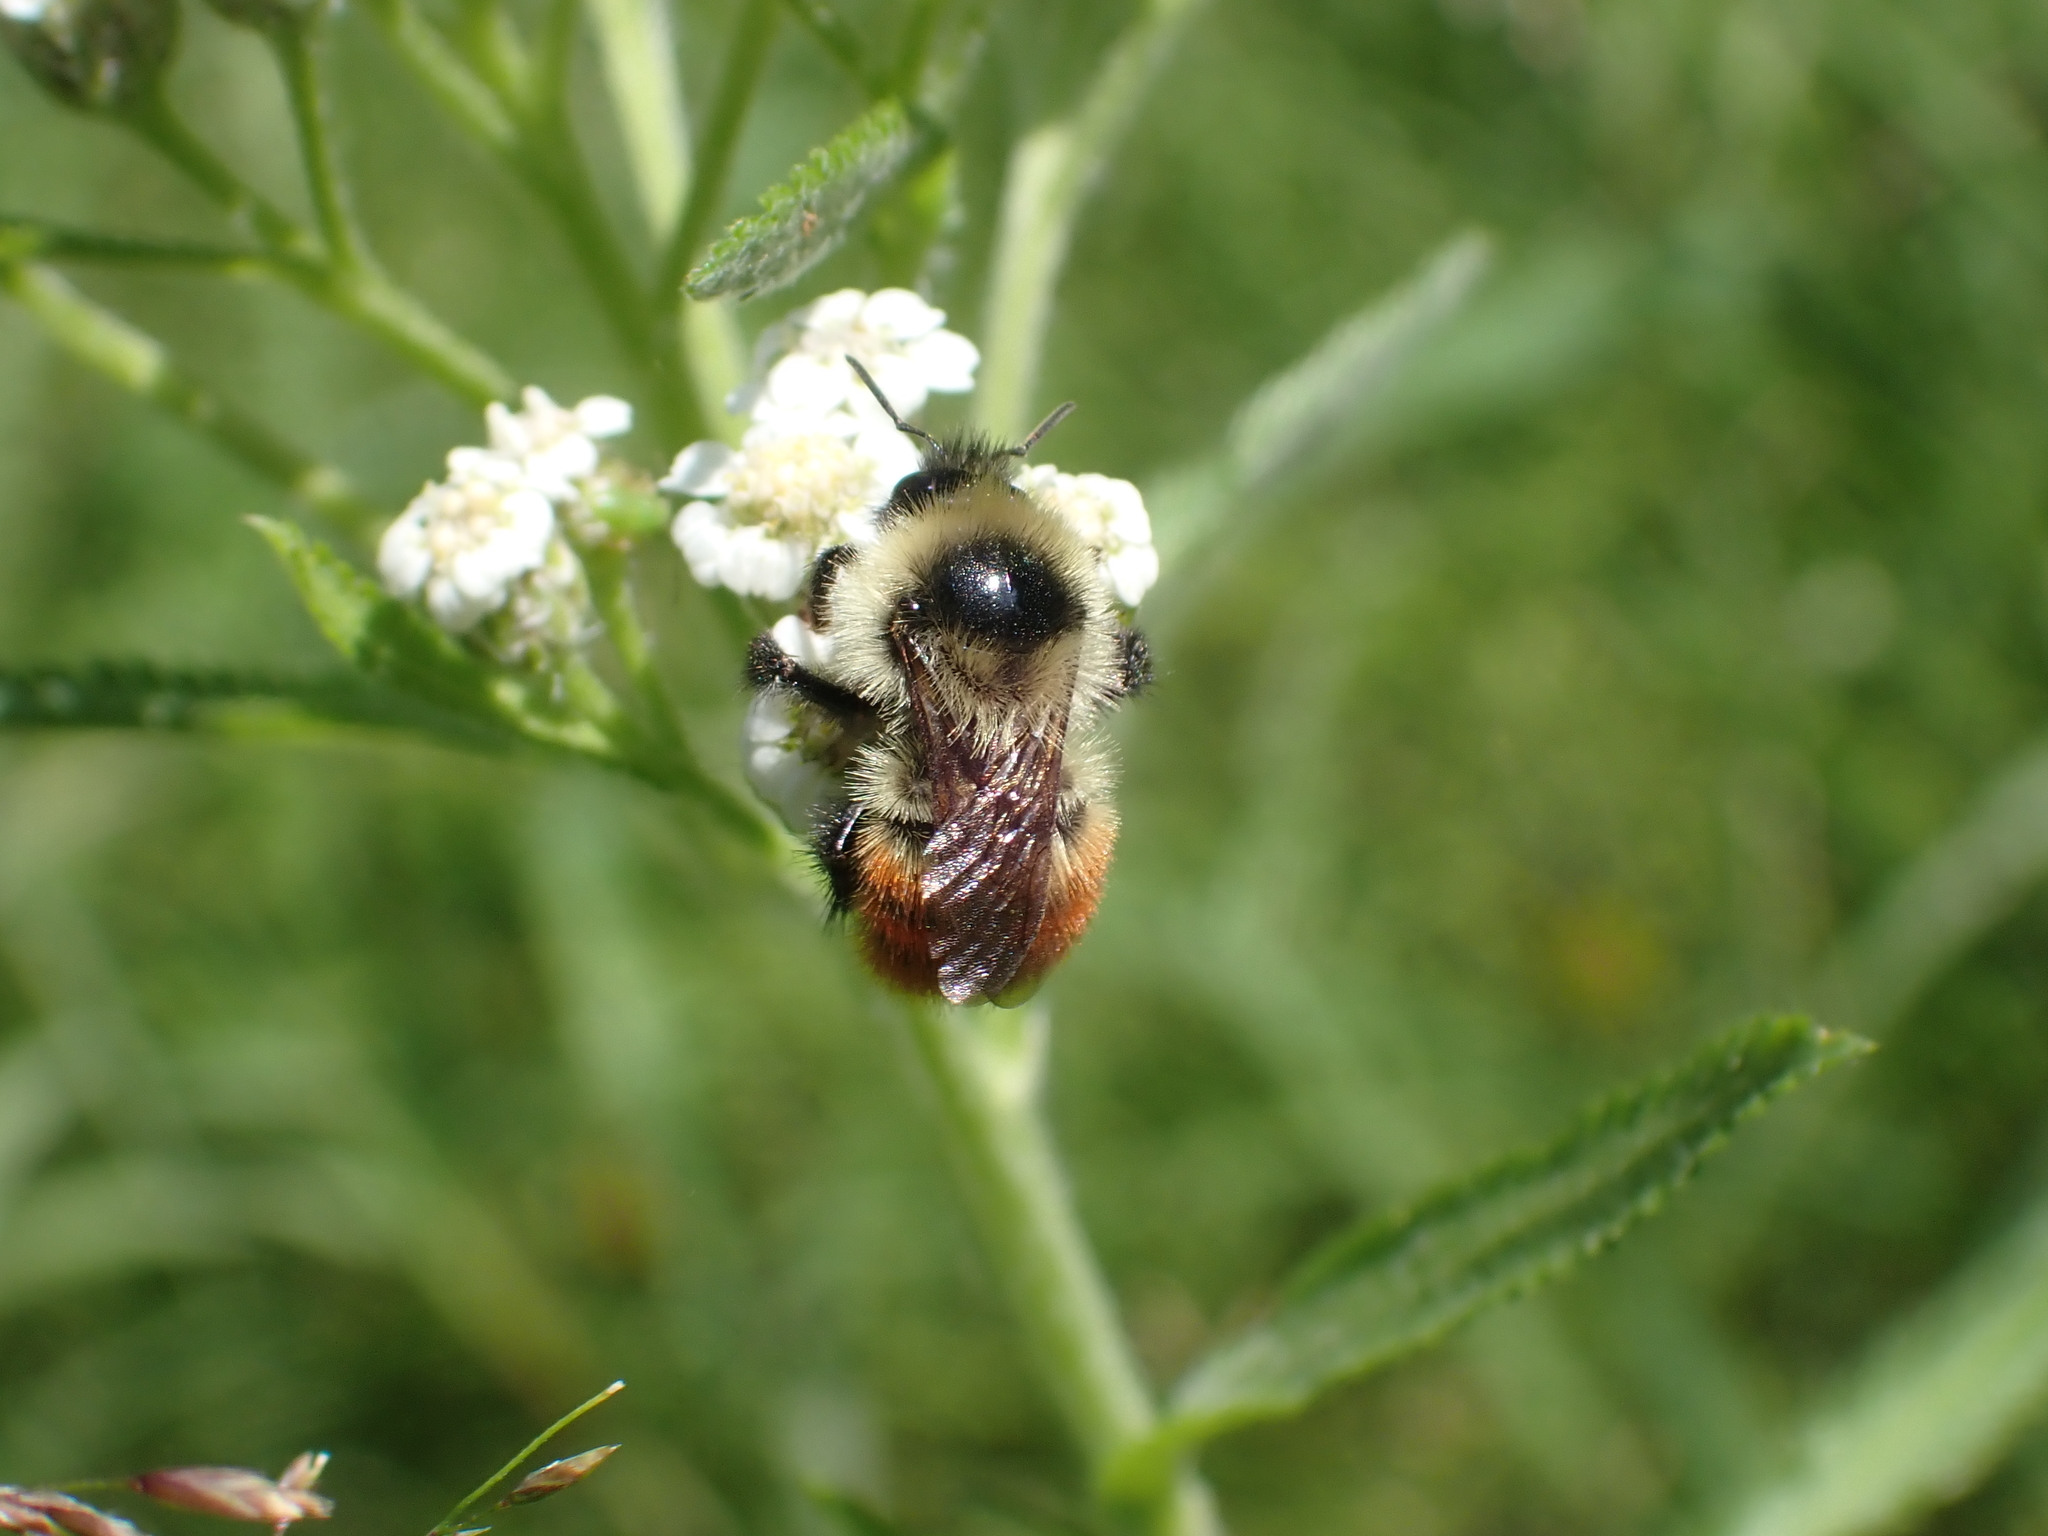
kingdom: Animalia
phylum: Arthropoda
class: Insecta
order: Hymenoptera
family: Apidae
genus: Bombus
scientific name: Bombus rufocinctus
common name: Red-belted bumble bee
